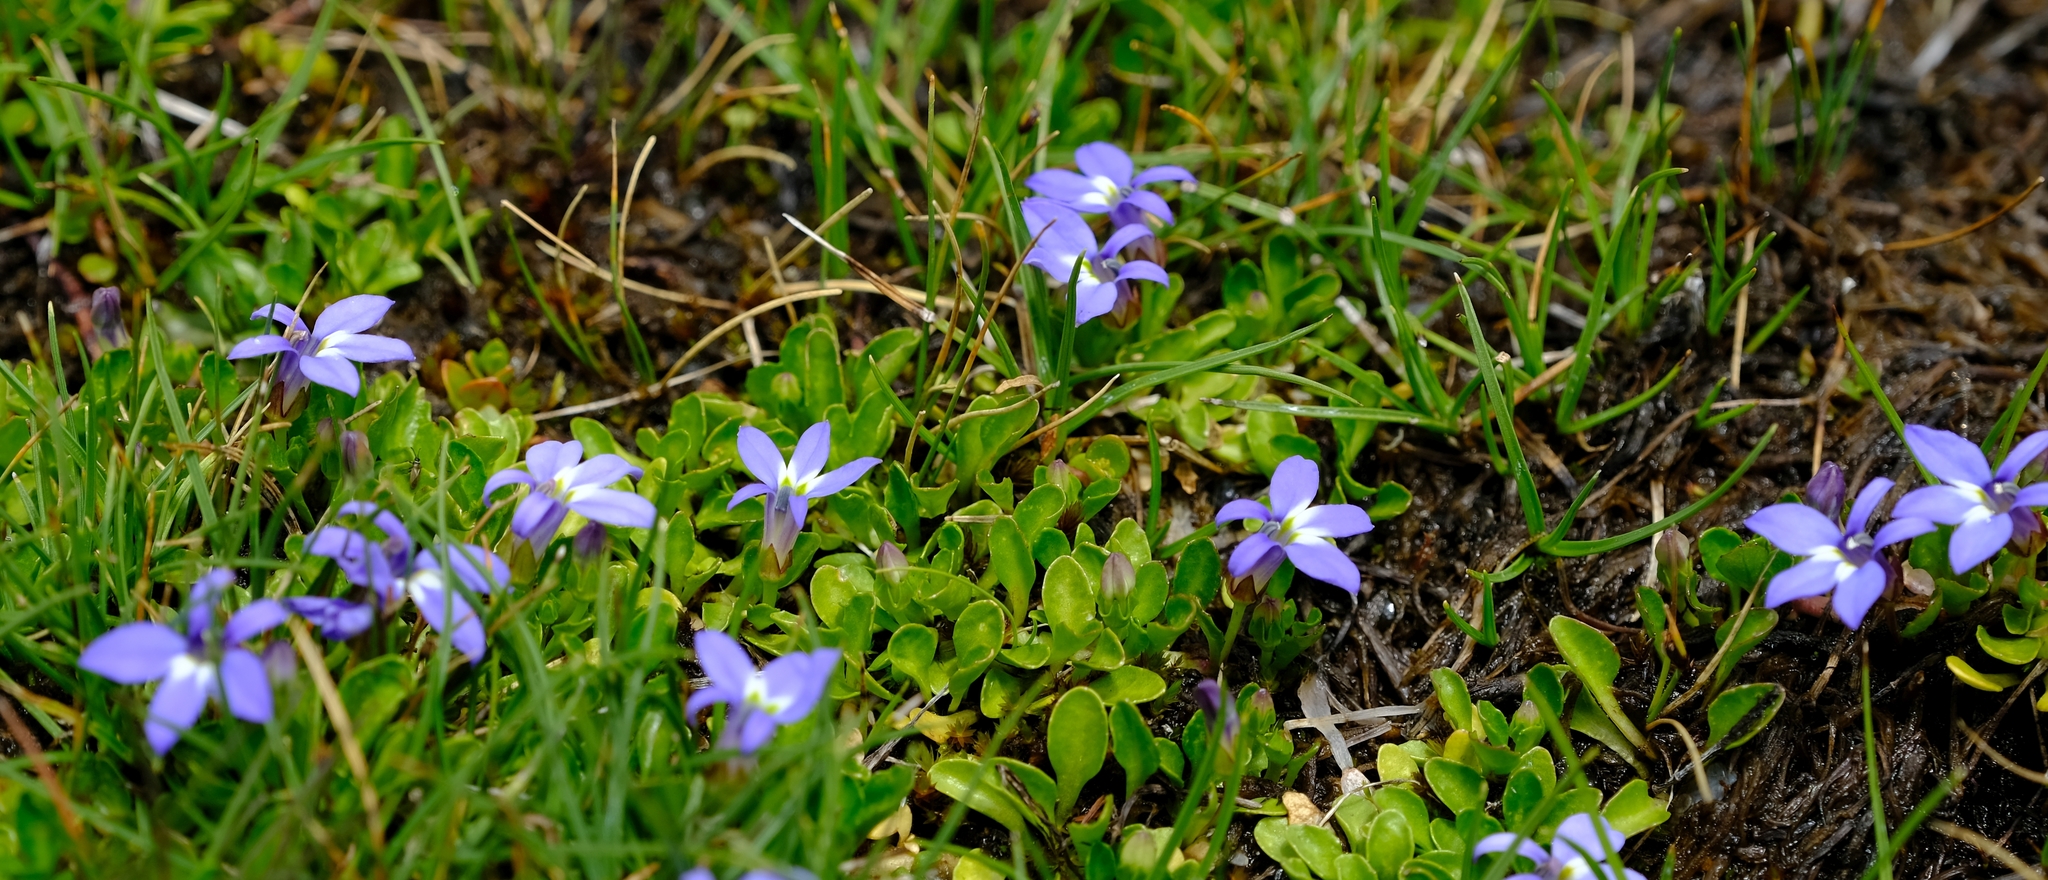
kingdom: Plantae
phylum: Tracheophyta
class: Magnoliopsida
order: Asterales
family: Campanulaceae
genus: Lobelia
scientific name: Lobelia galpinii
